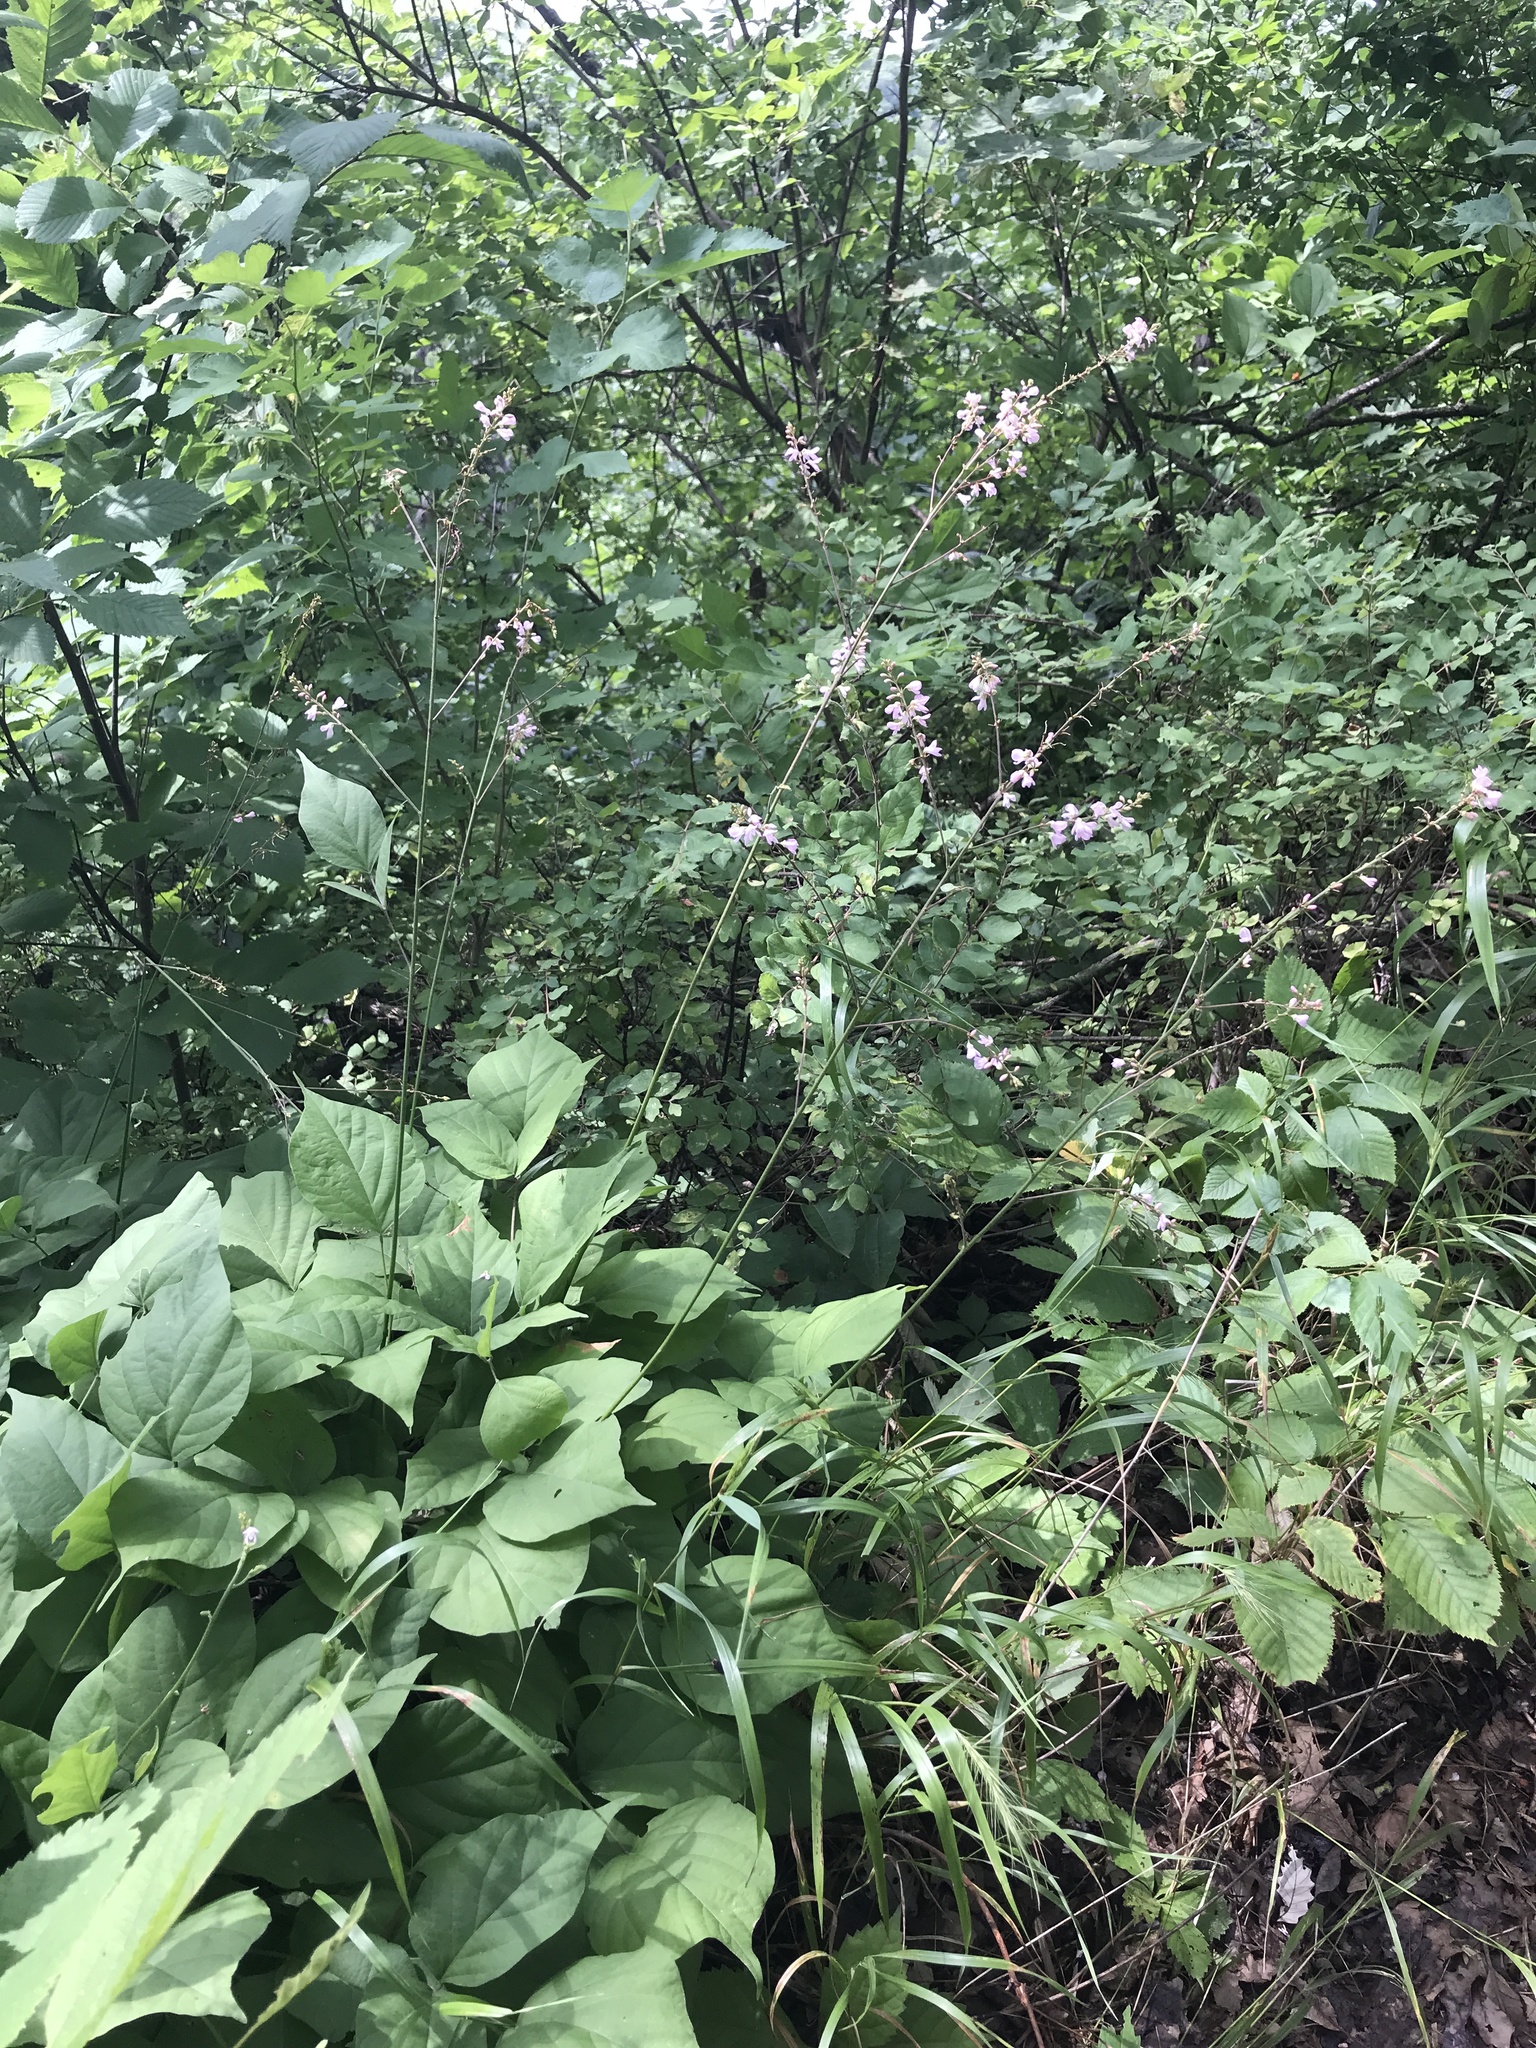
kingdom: Plantae
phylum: Tracheophyta
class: Magnoliopsida
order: Fabales
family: Fabaceae
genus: Hylodesmum
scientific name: Hylodesmum glutinosum
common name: Clustered-leaved tick-trefoil
